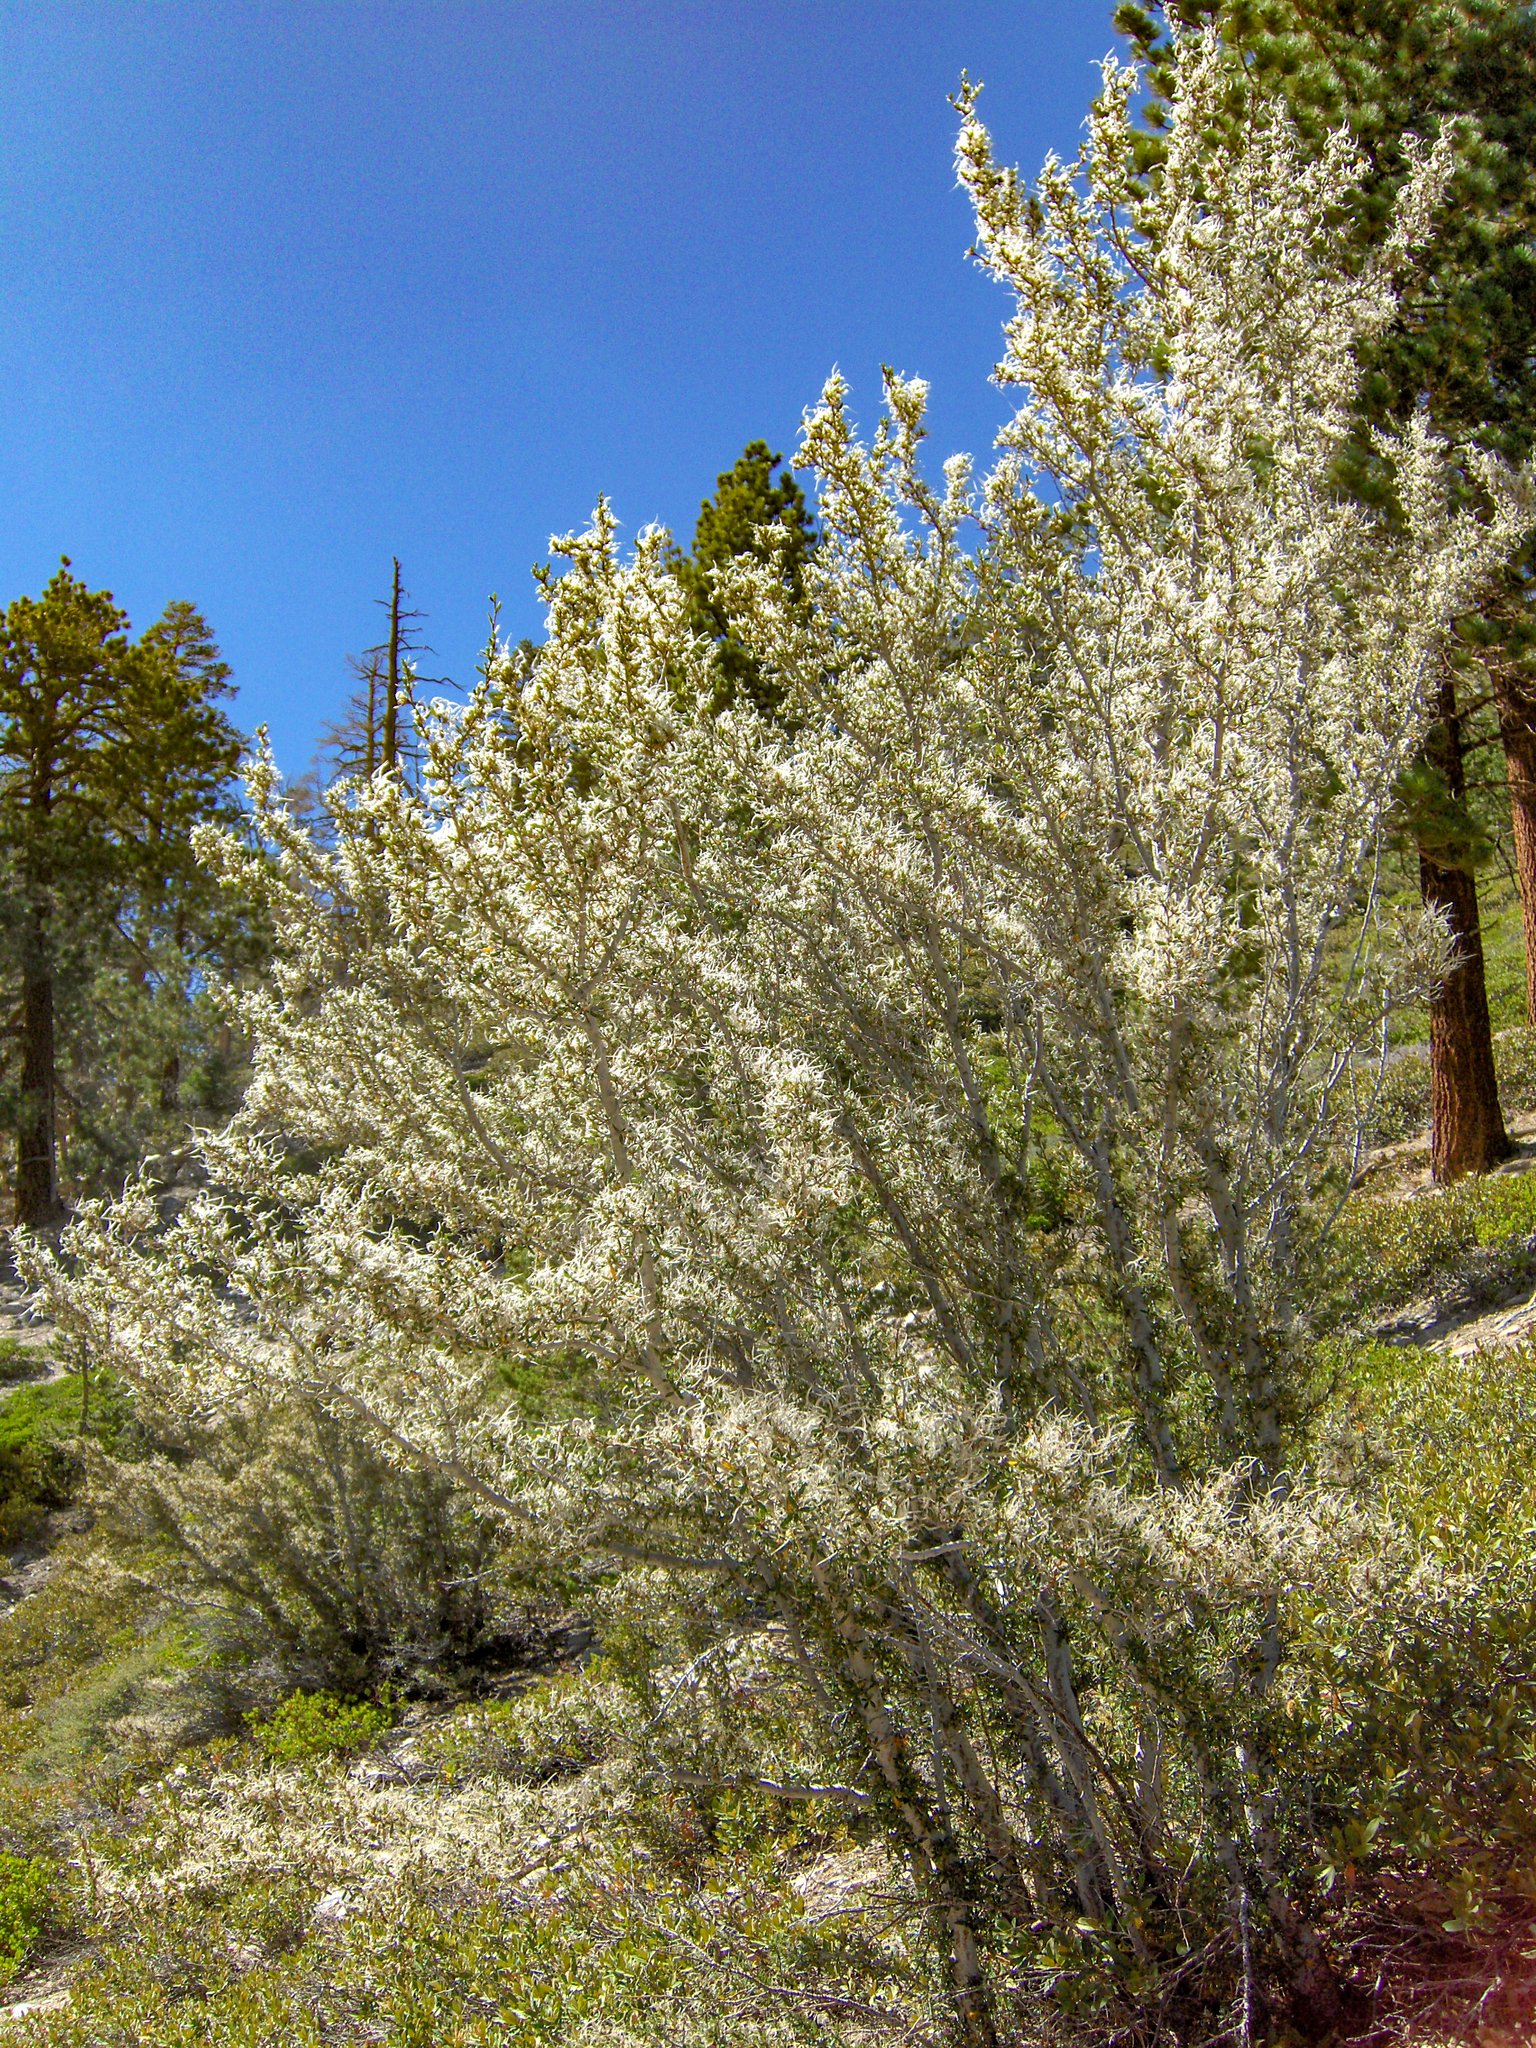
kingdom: Plantae
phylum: Tracheophyta
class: Magnoliopsida
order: Rosales
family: Rosaceae
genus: Cercocarpus
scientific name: Cercocarpus ledifolius
